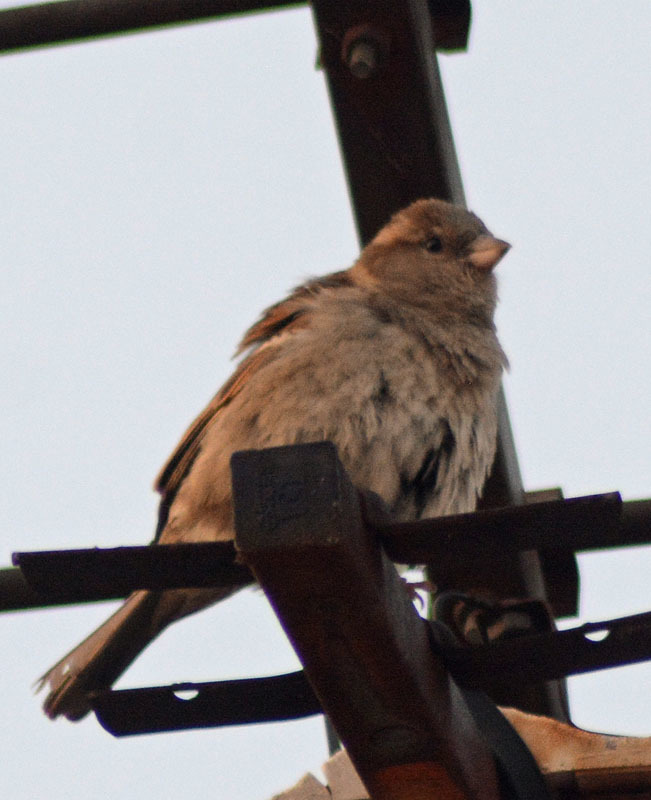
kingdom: Animalia
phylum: Chordata
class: Aves
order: Passeriformes
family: Passeridae
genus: Passer
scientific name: Passer domesticus
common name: House sparrow
